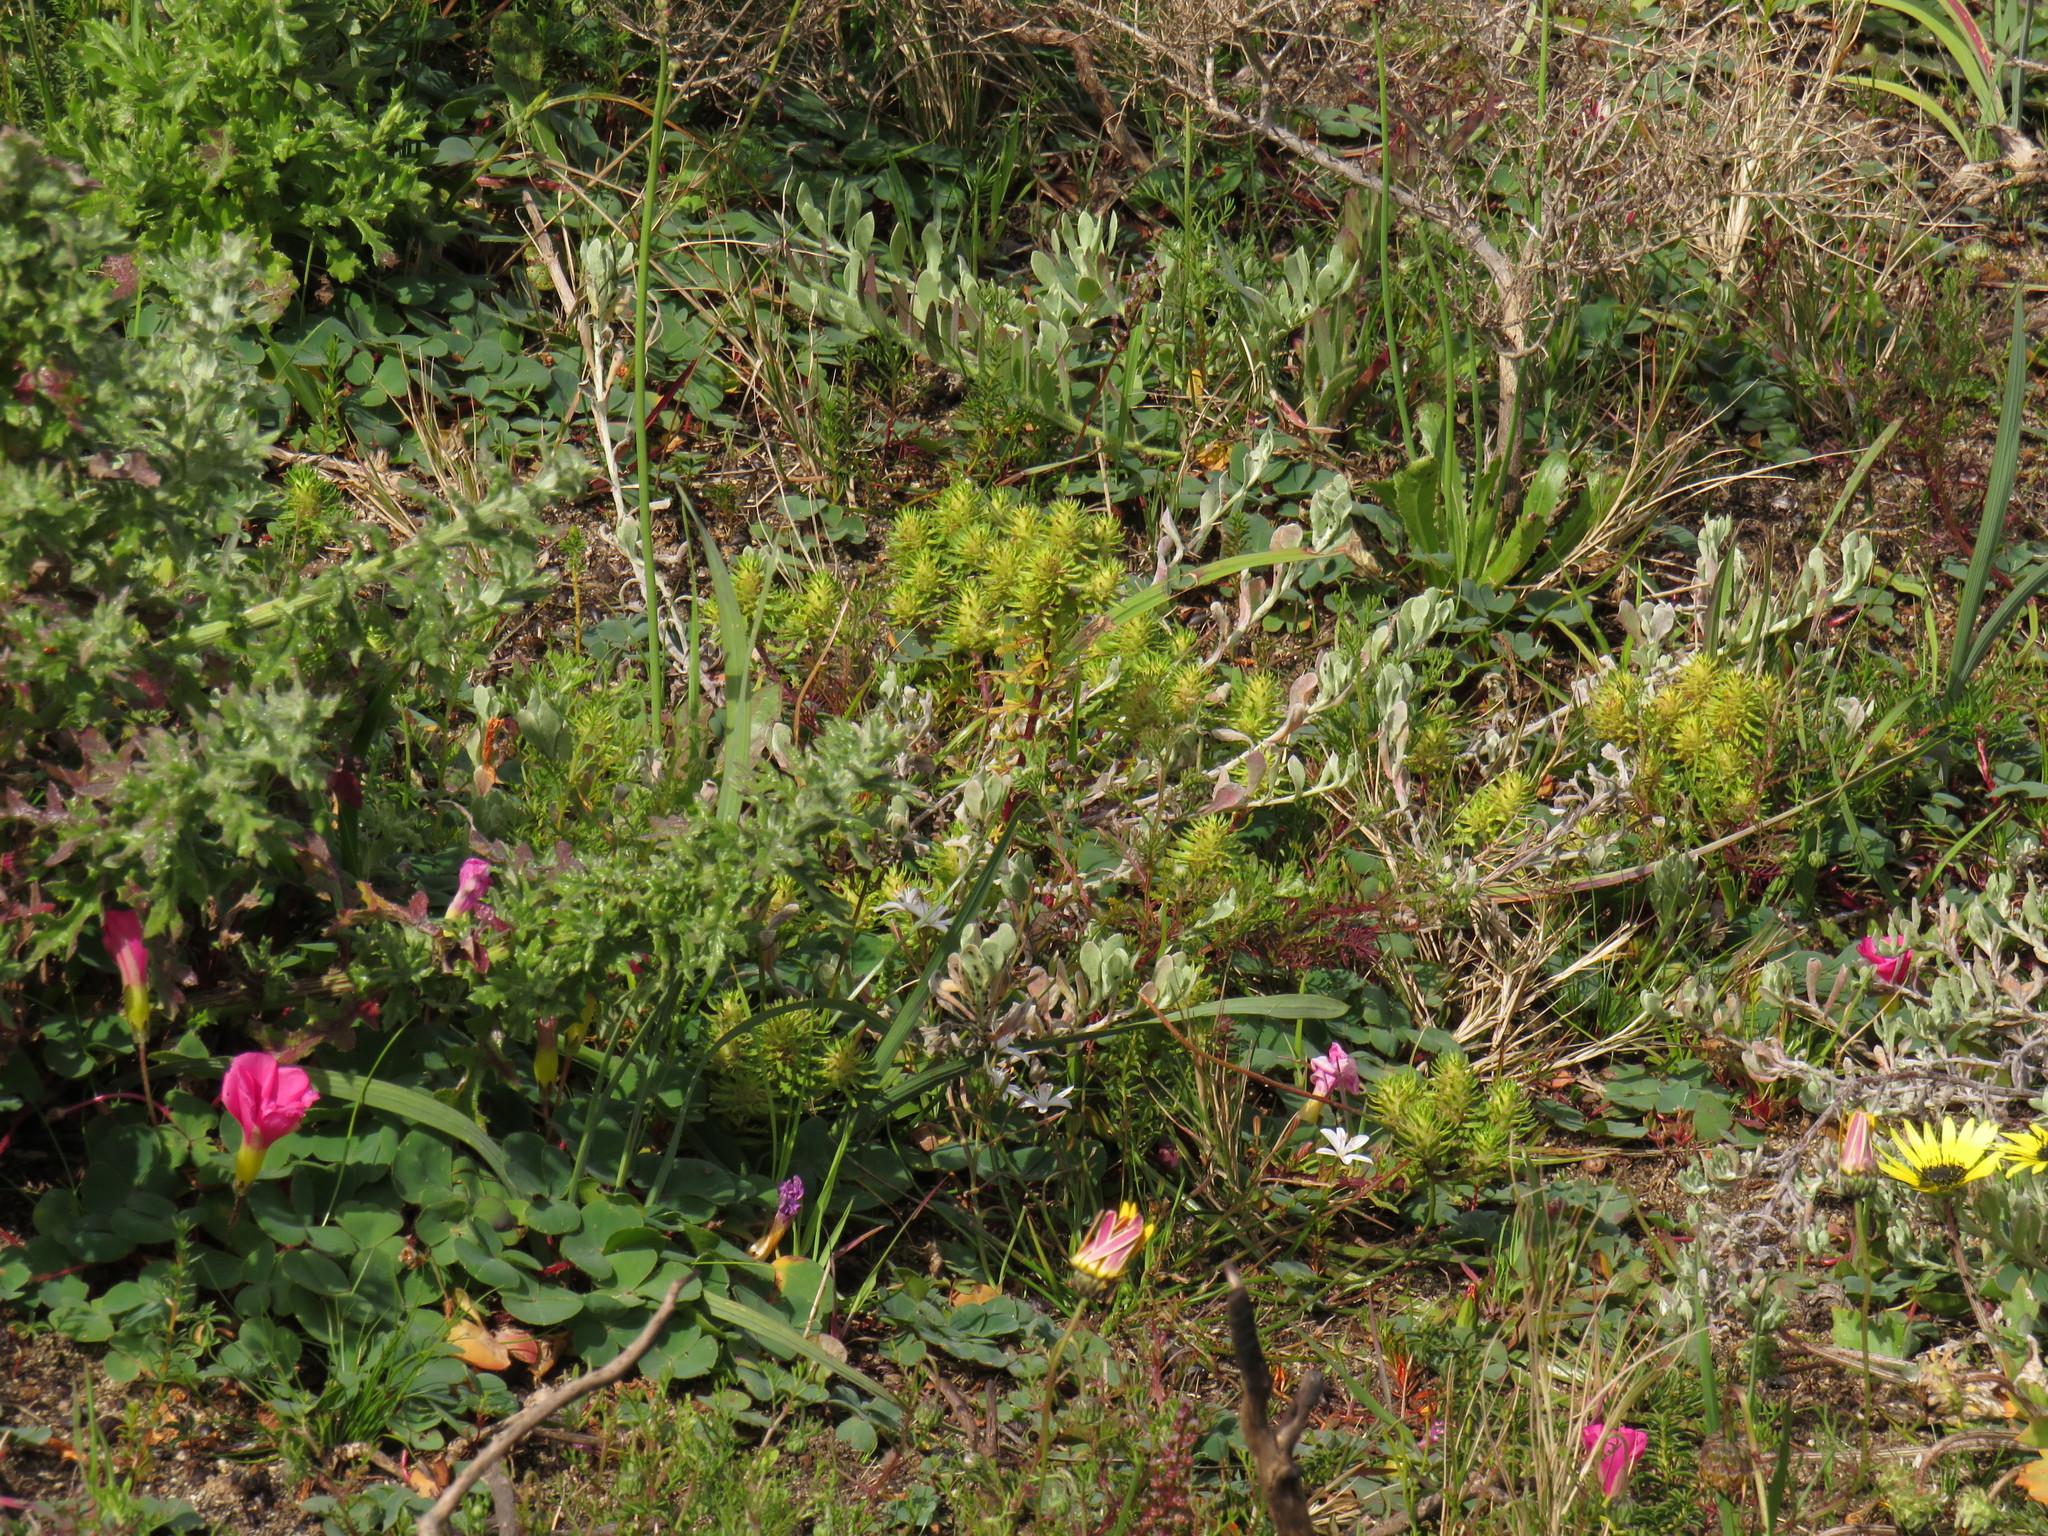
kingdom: Plantae
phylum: Tracheophyta
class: Magnoliopsida
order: Lamiales
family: Scrophulariaceae
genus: Dischisma
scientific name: Dischisma capitatum
